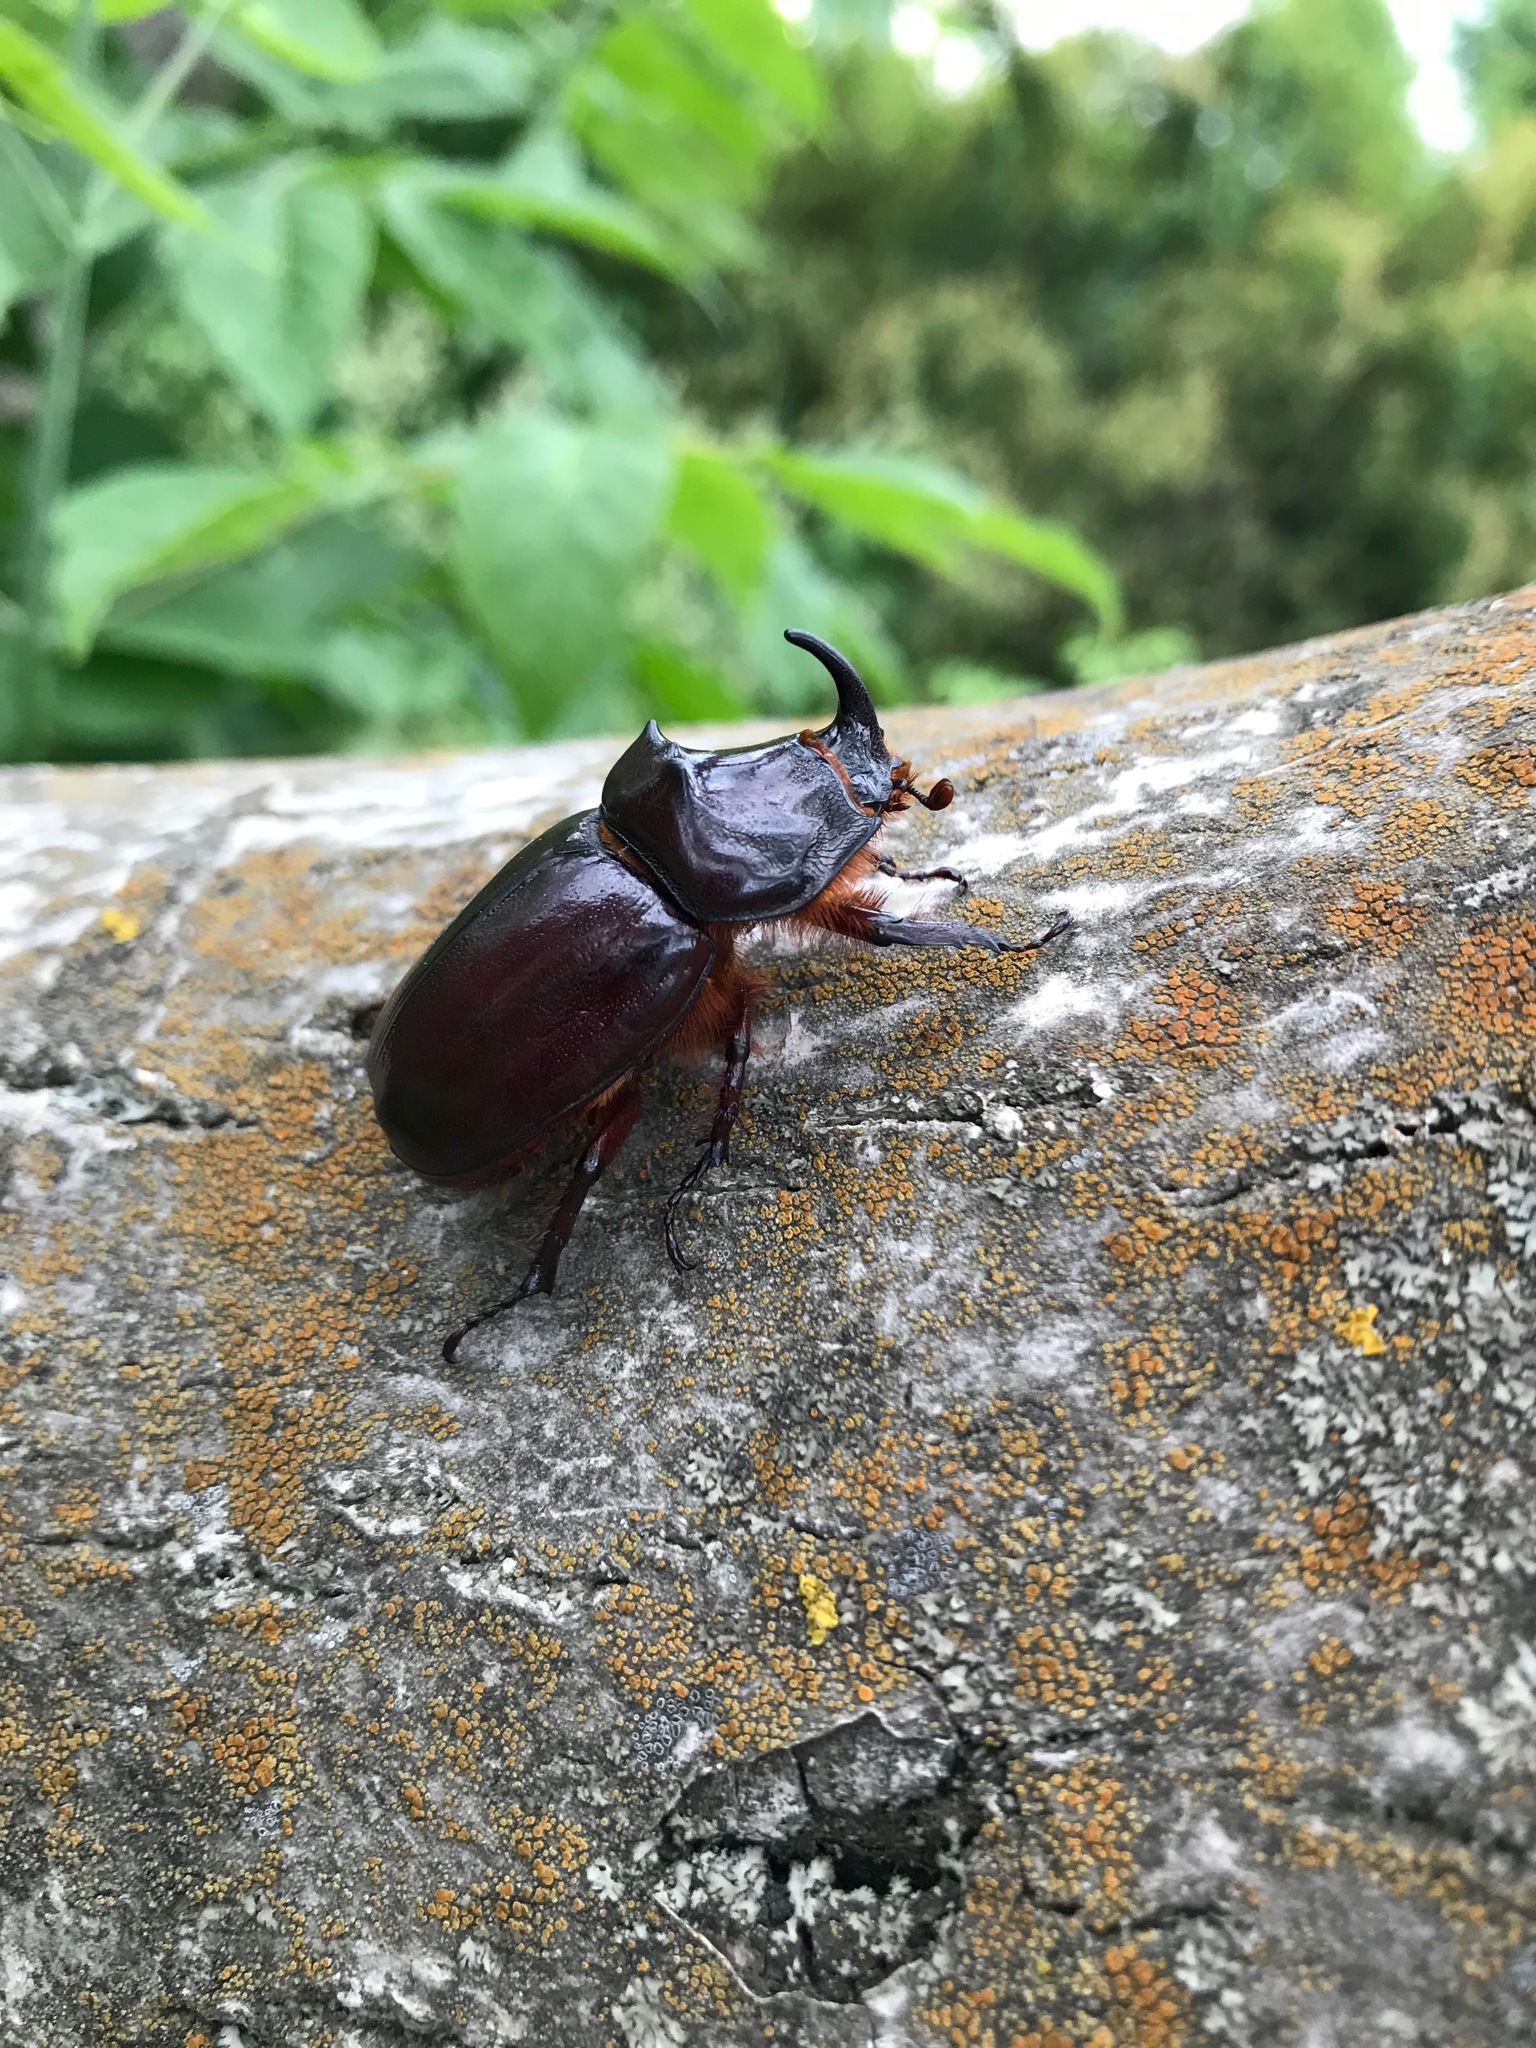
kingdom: Animalia
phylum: Arthropoda
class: Insecta
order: Coleoptera
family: Scarabaeidae
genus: Oryctes
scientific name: Oryctes nasicornis
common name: European rhinoceros beetle
